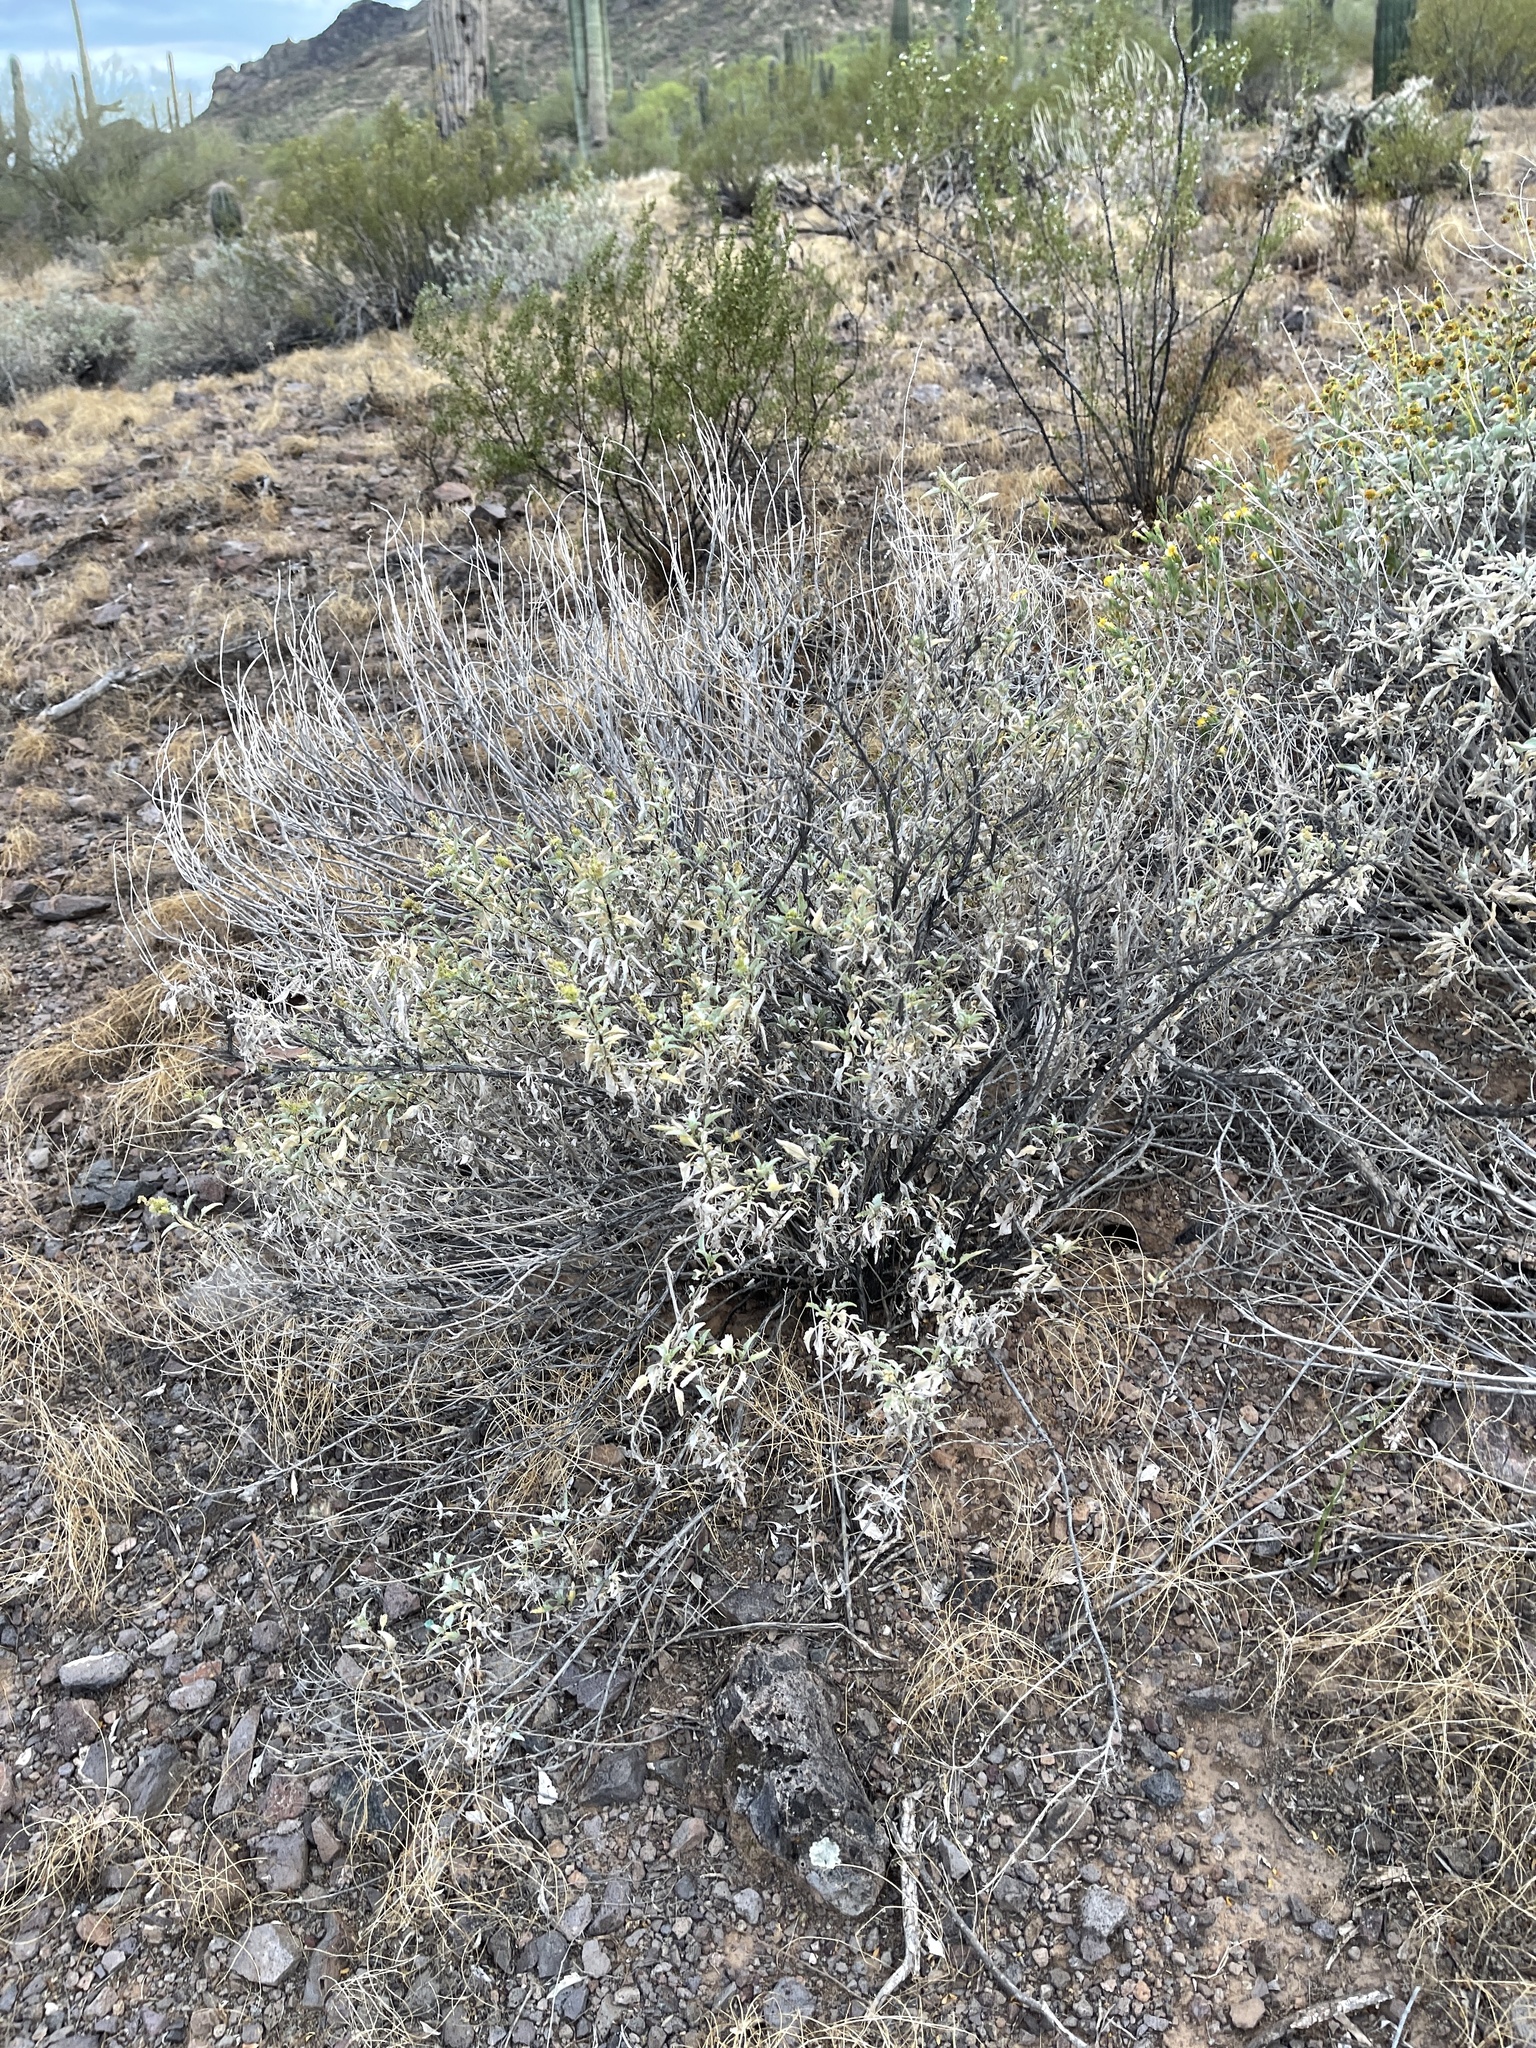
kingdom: Plantae
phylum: Tracheophyta
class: Magnoliopsida
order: Asterales
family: Asteraceae
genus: Ambrosia
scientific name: Ambrosia deltoidea
